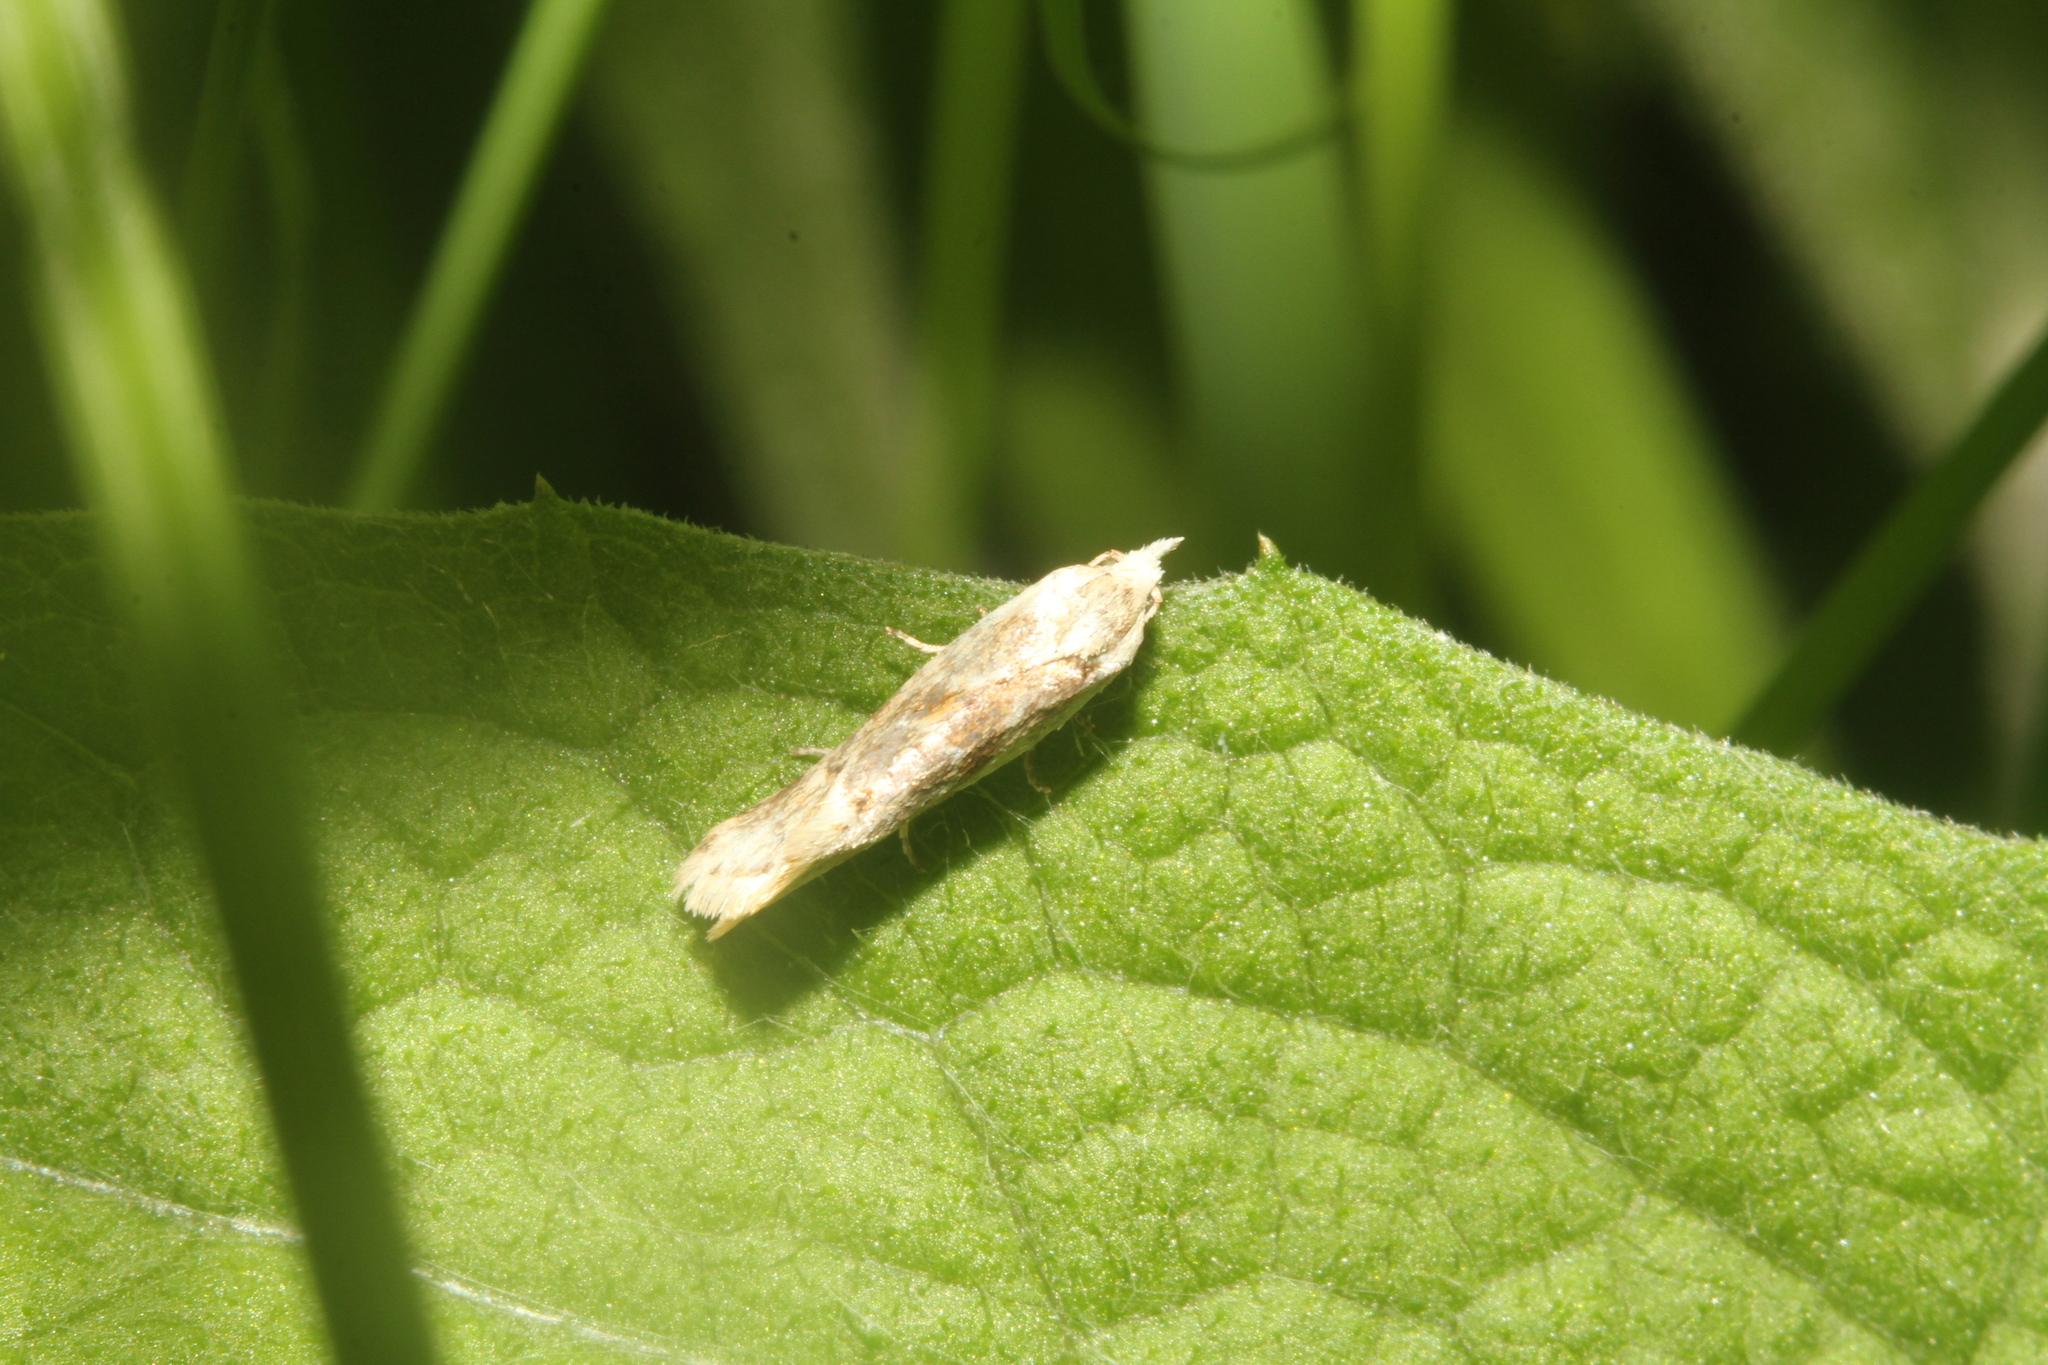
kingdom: Animalia
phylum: Arthropoda
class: Insecta
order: Lepidoptera
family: Tortricidae
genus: Cochylimorpha
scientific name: Cochylimorpha straminea
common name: Straw conch
